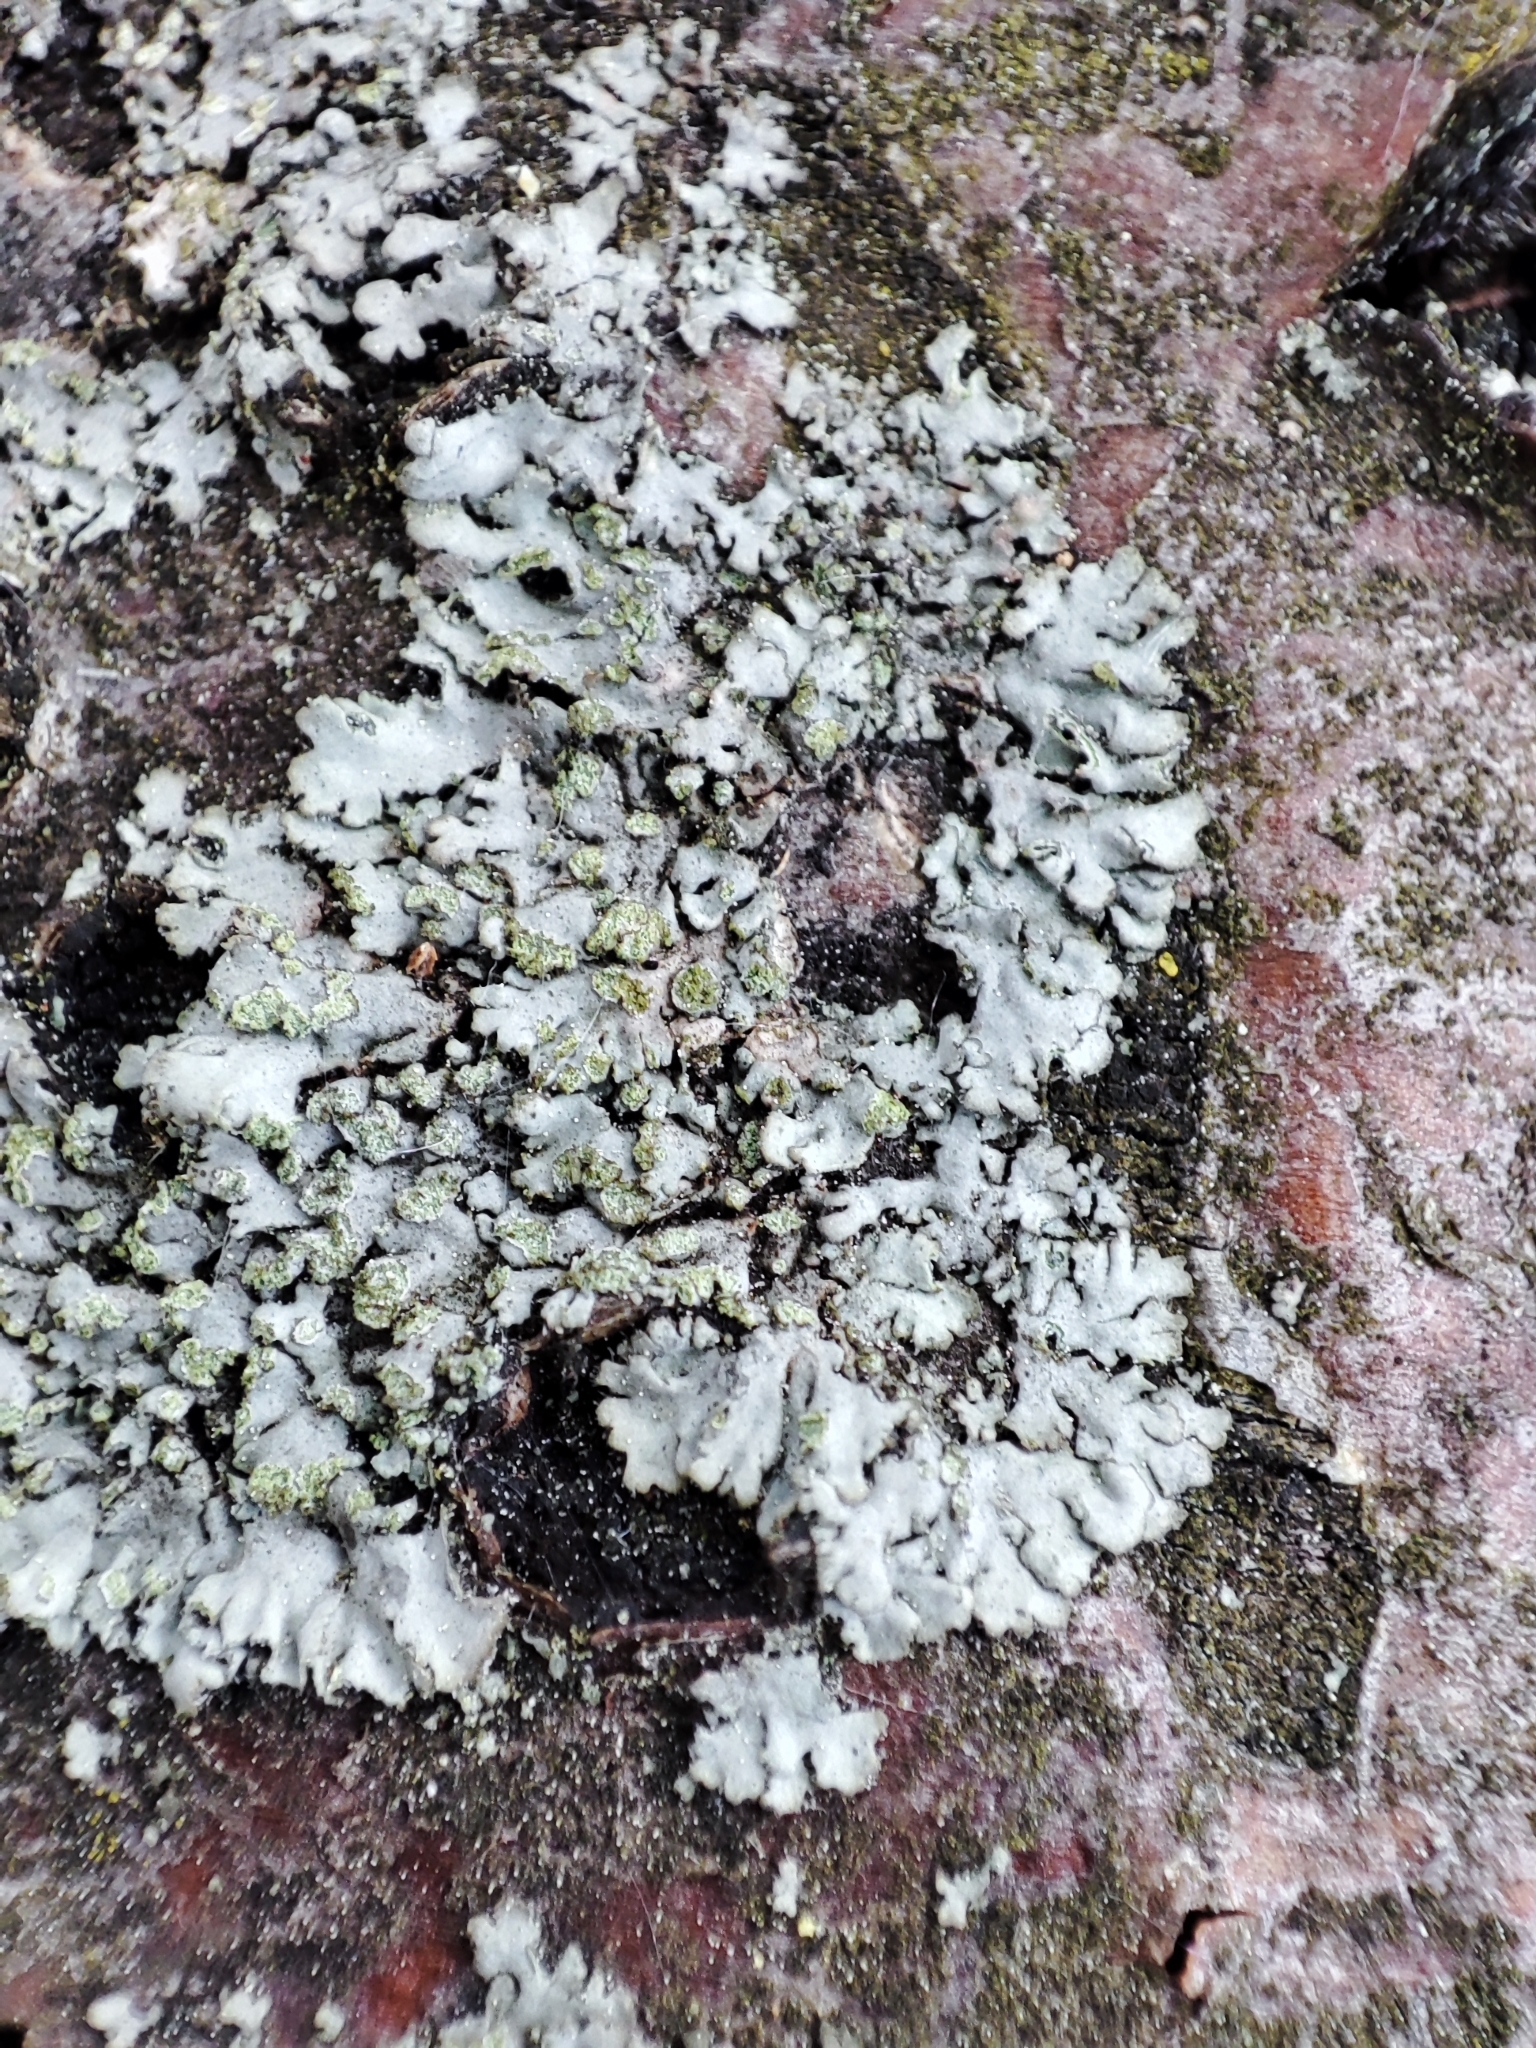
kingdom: Fungi
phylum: Ascomycota
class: Lecanoromycetes
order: Caliciales
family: Physciaceae
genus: Phaeophyscia
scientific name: Phaeophyscia orbicularis
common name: Mealy shadow lichen
